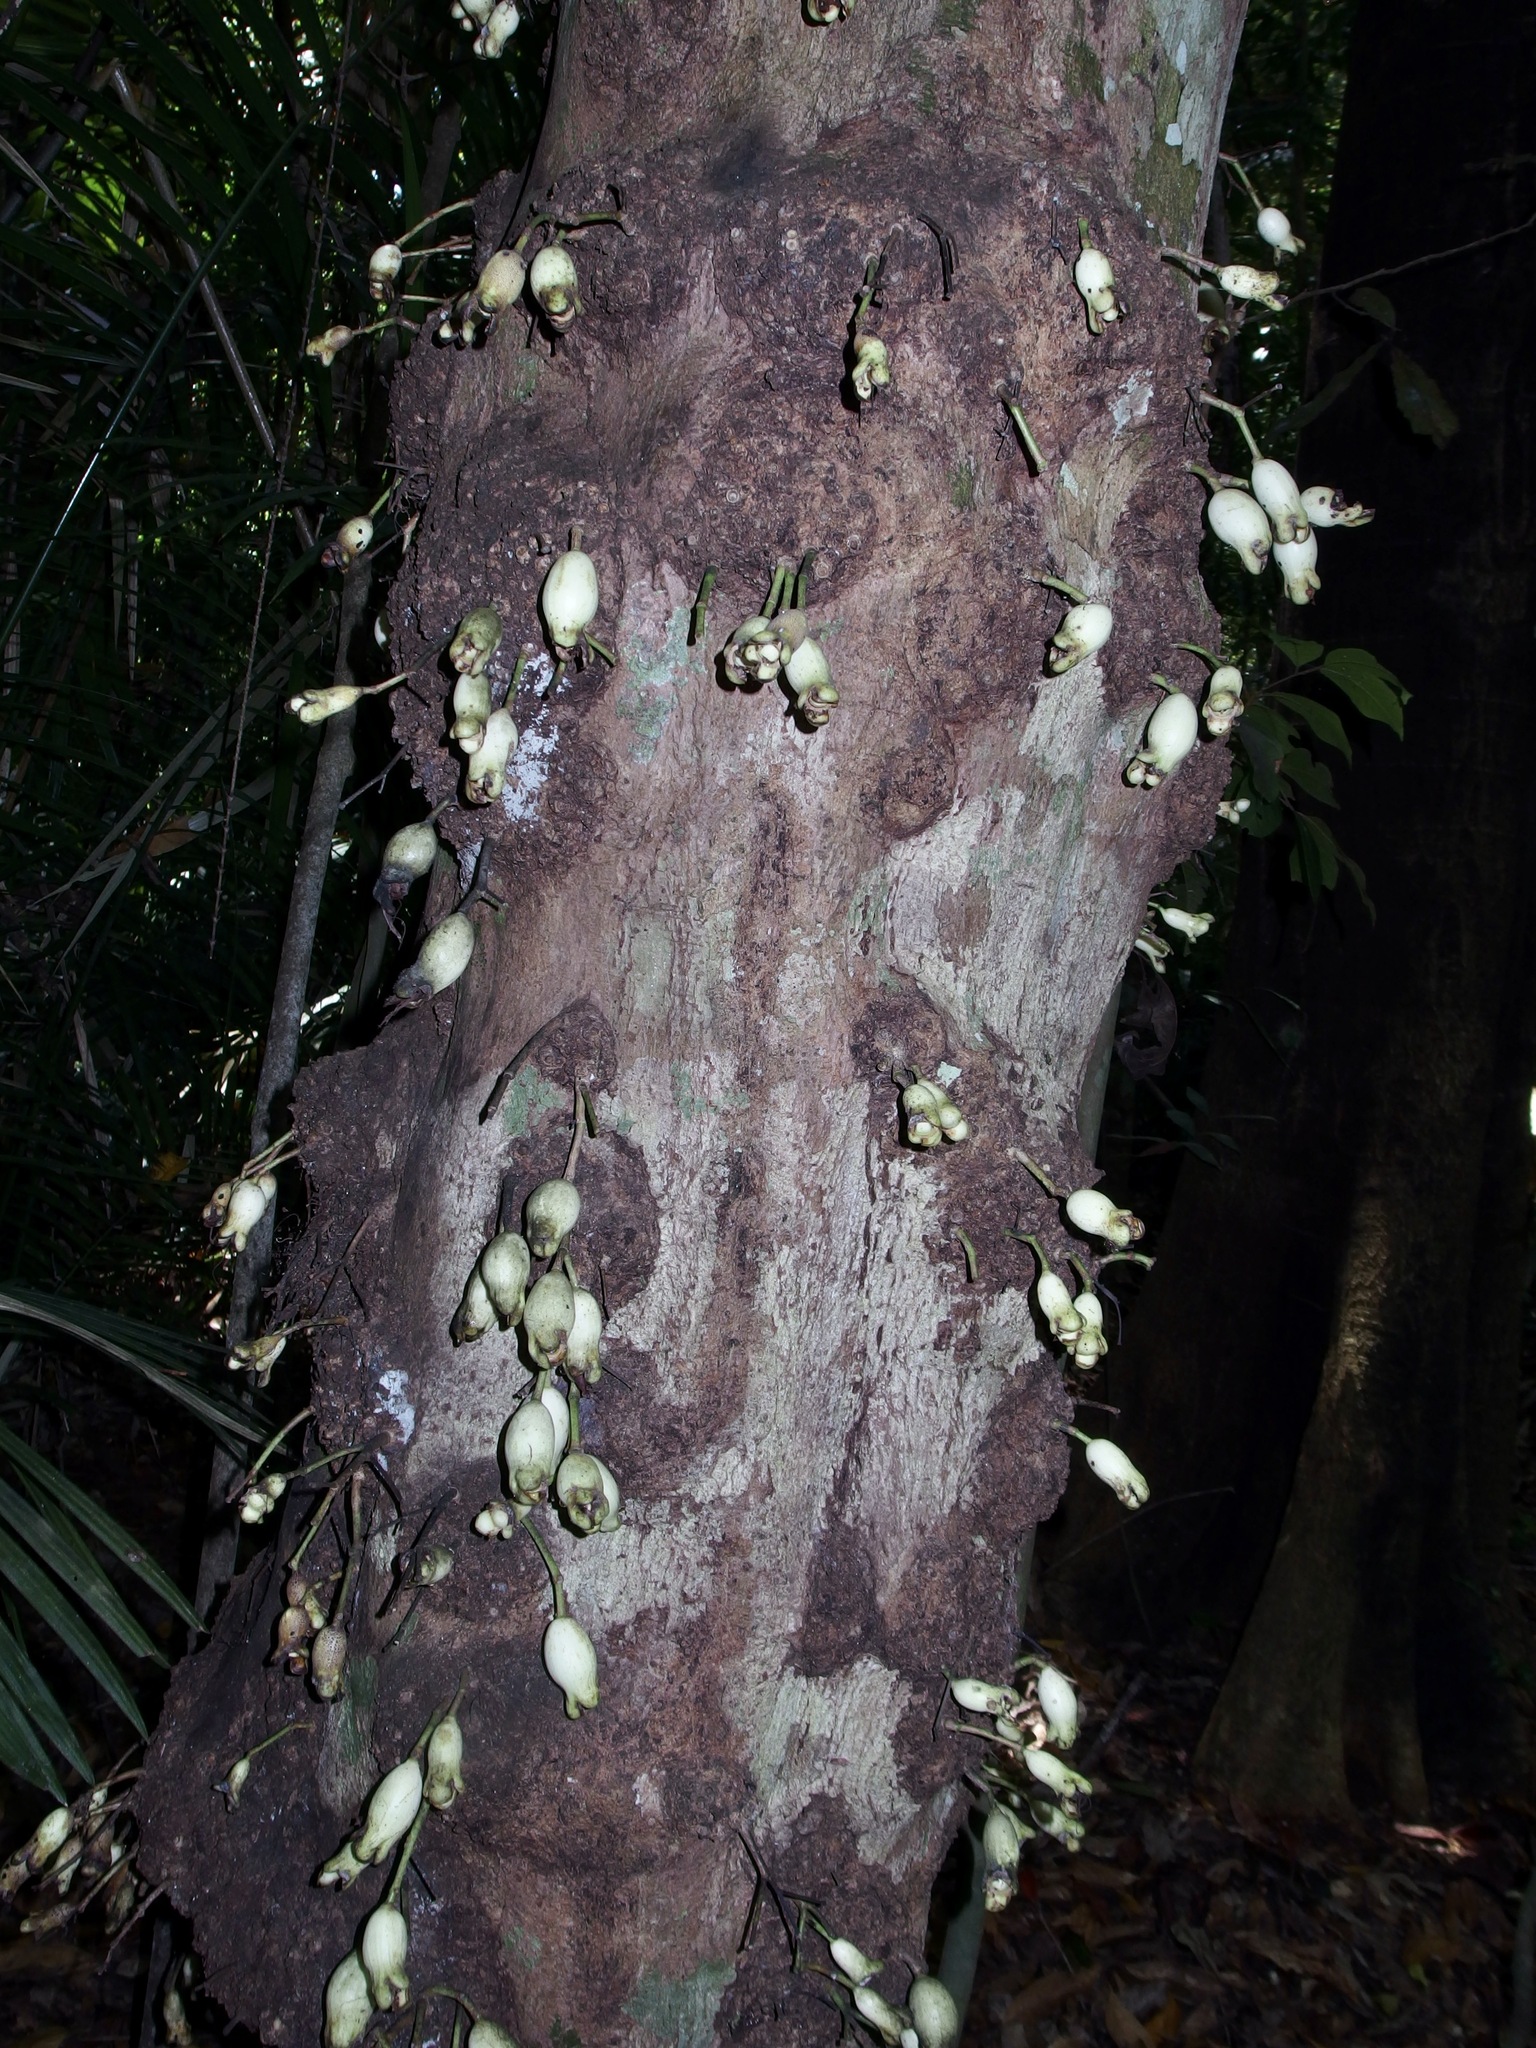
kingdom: Plantae
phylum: Tracheophyta
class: Magnoliopsida
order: Myrtales
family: Myrtaceae
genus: Syzygium
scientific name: Syzygium cormiflorum
